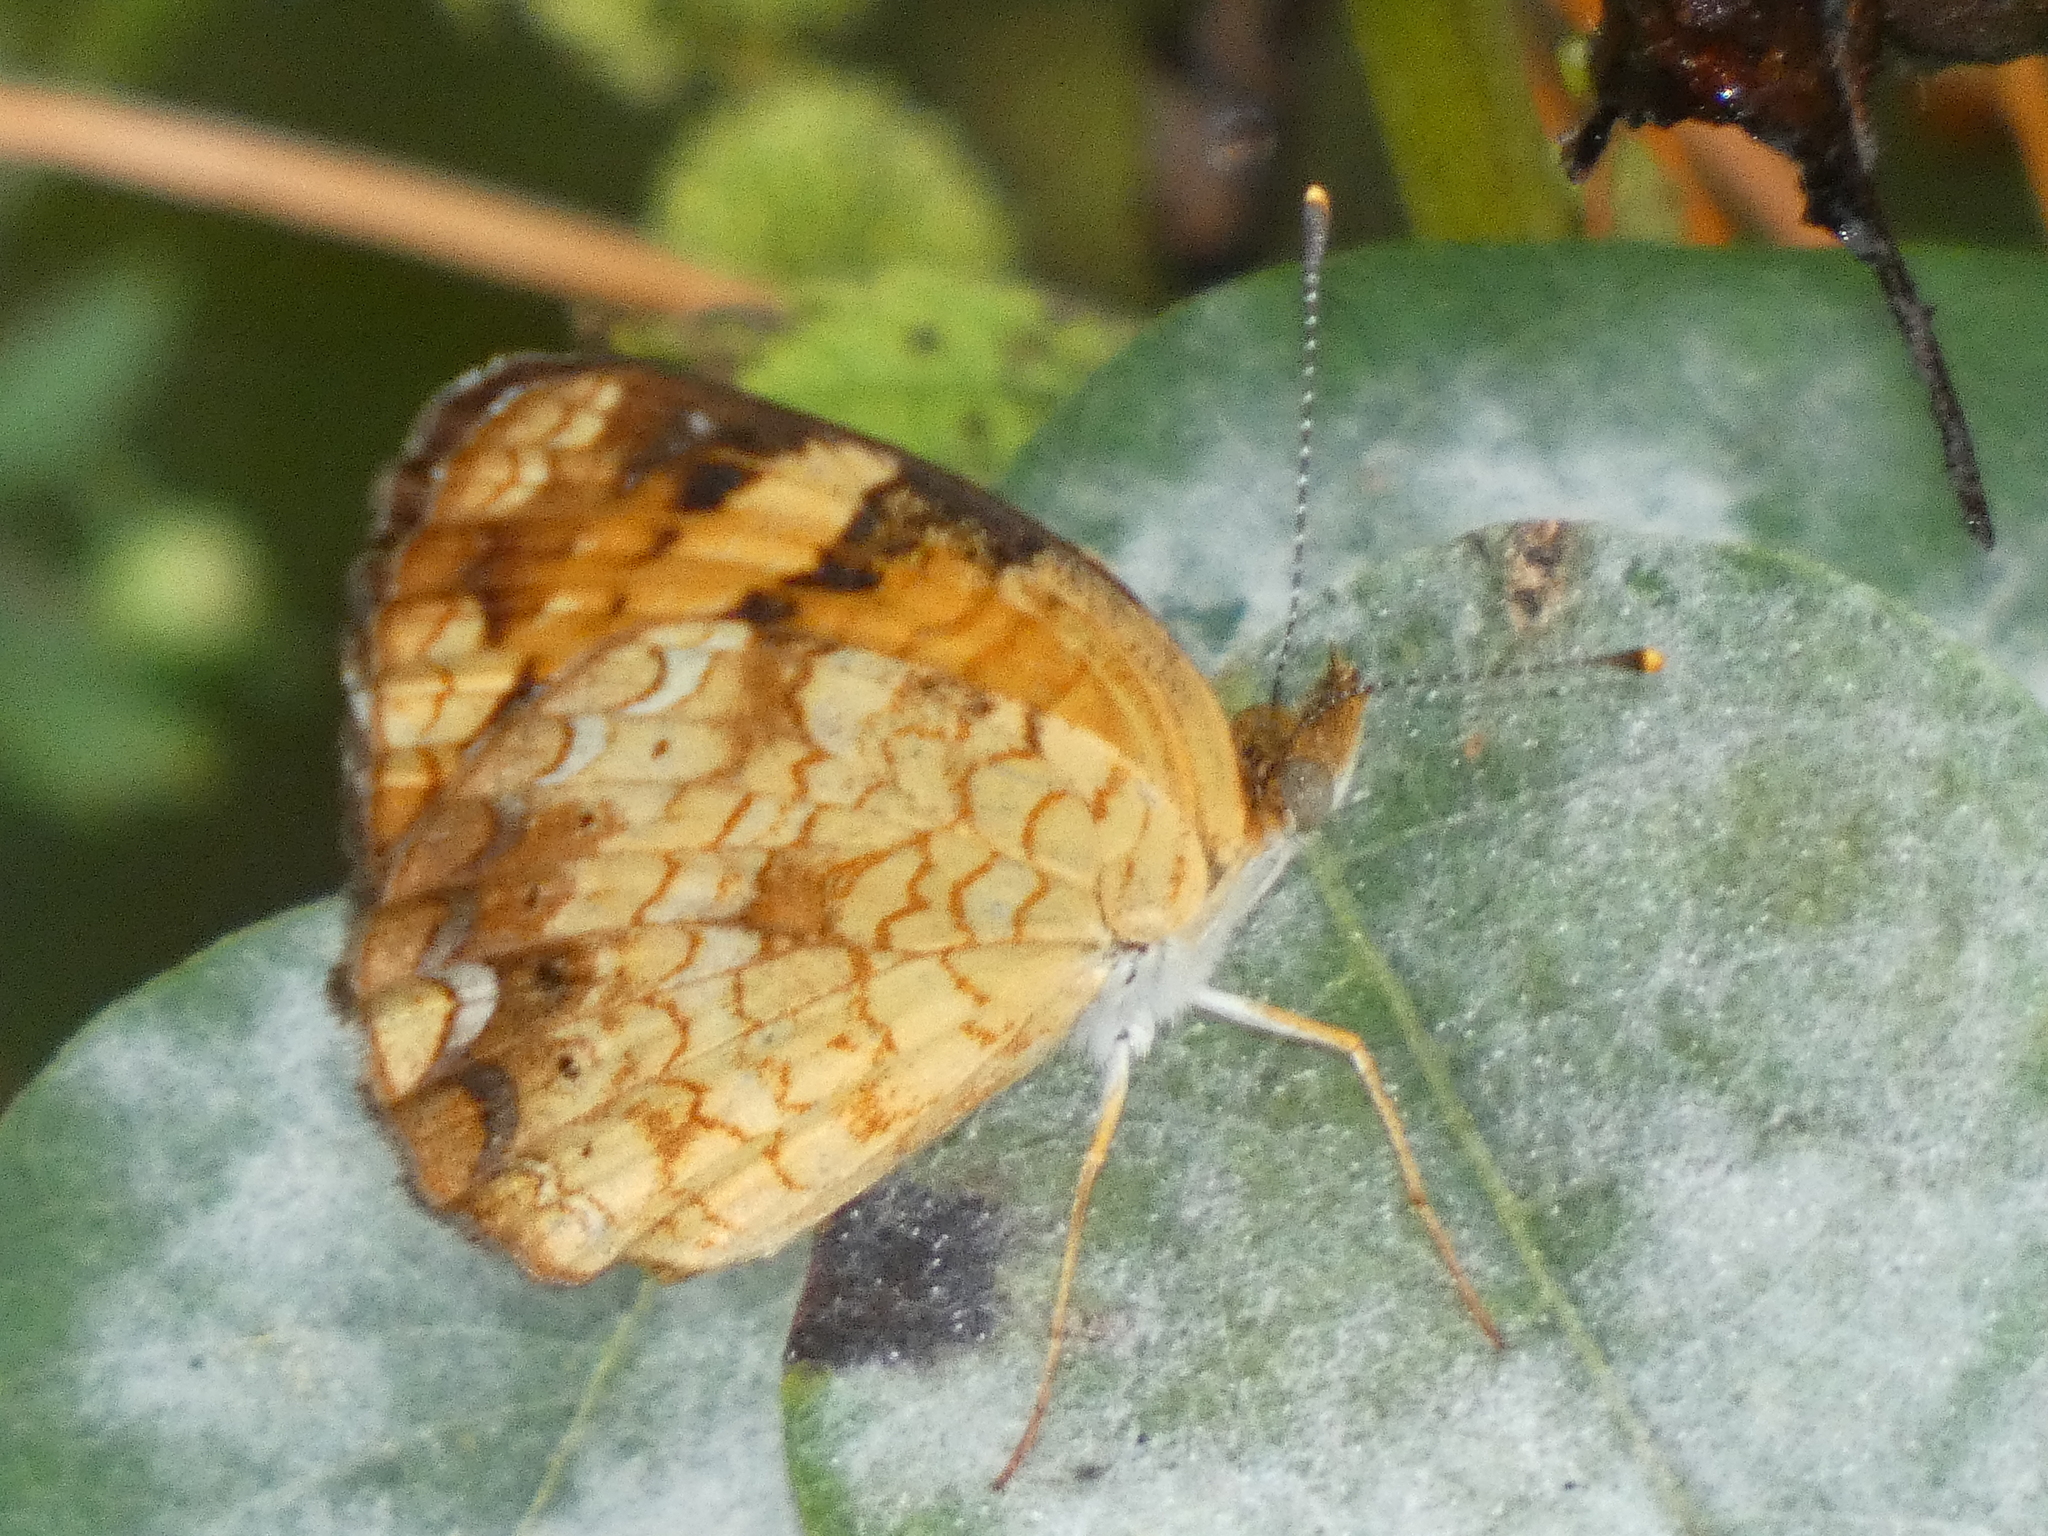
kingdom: Animalia
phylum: Arthropoda
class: Insecta
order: Lepidoptera
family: Nymphalidae
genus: Phyciodes
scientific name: Phyciodes tharos
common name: Pearl crescent
